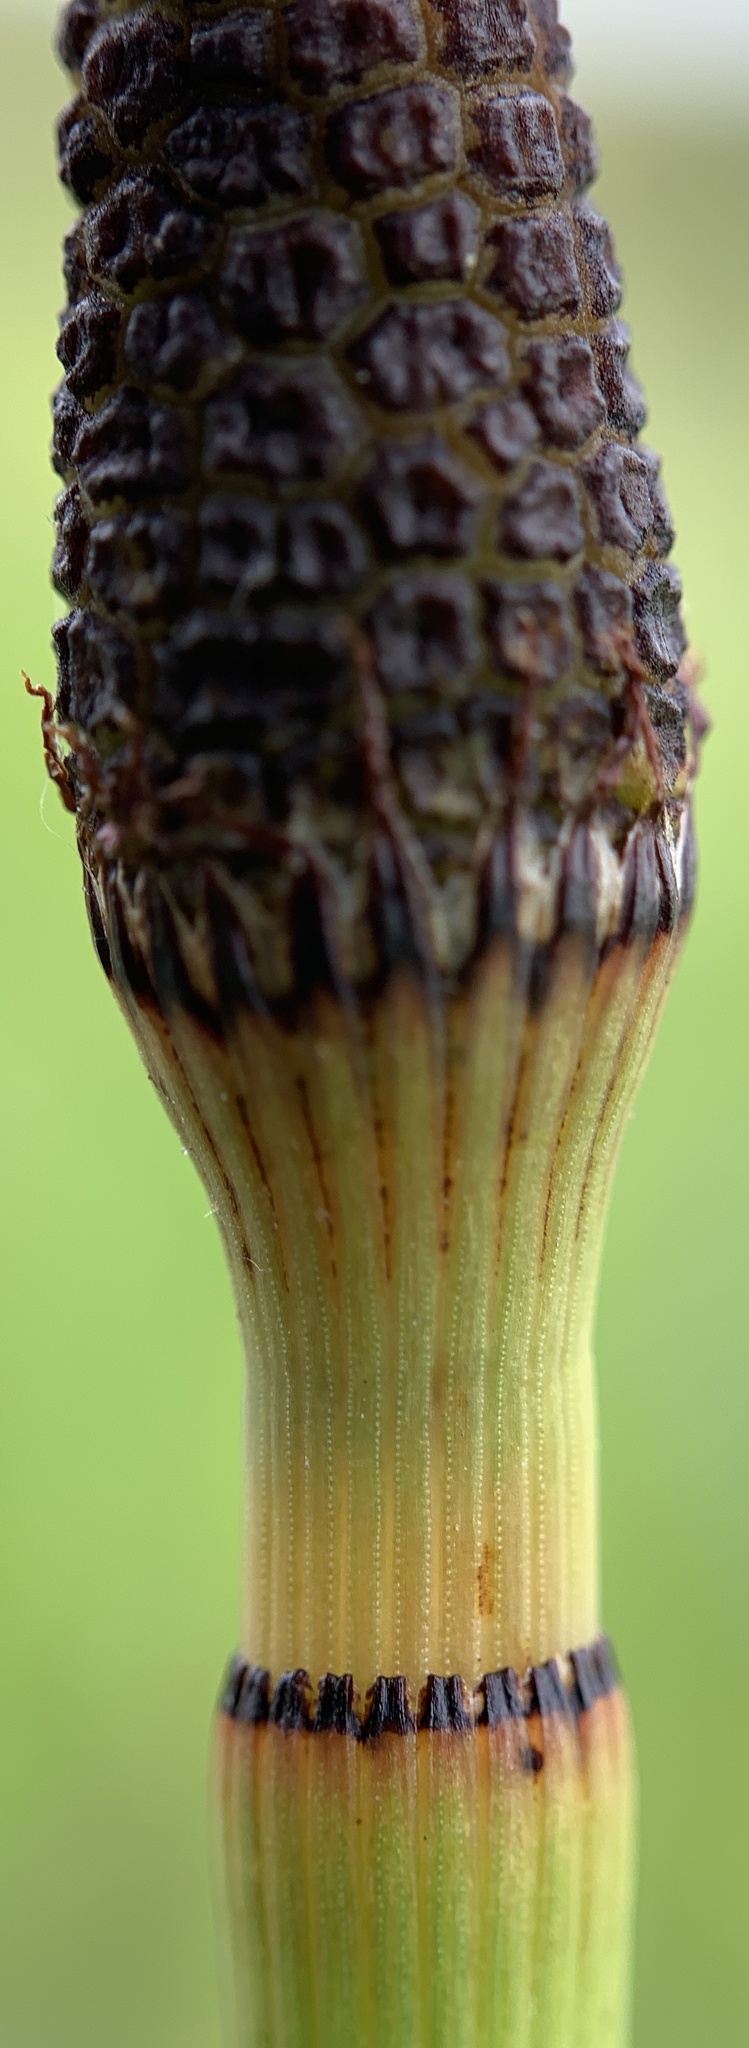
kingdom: Plantae
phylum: Tracheophyta
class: Polypodiopsida
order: Equisetales
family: Equisetaceae
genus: Equisetum
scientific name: Equisetum hyemale
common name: Rough horsetail
